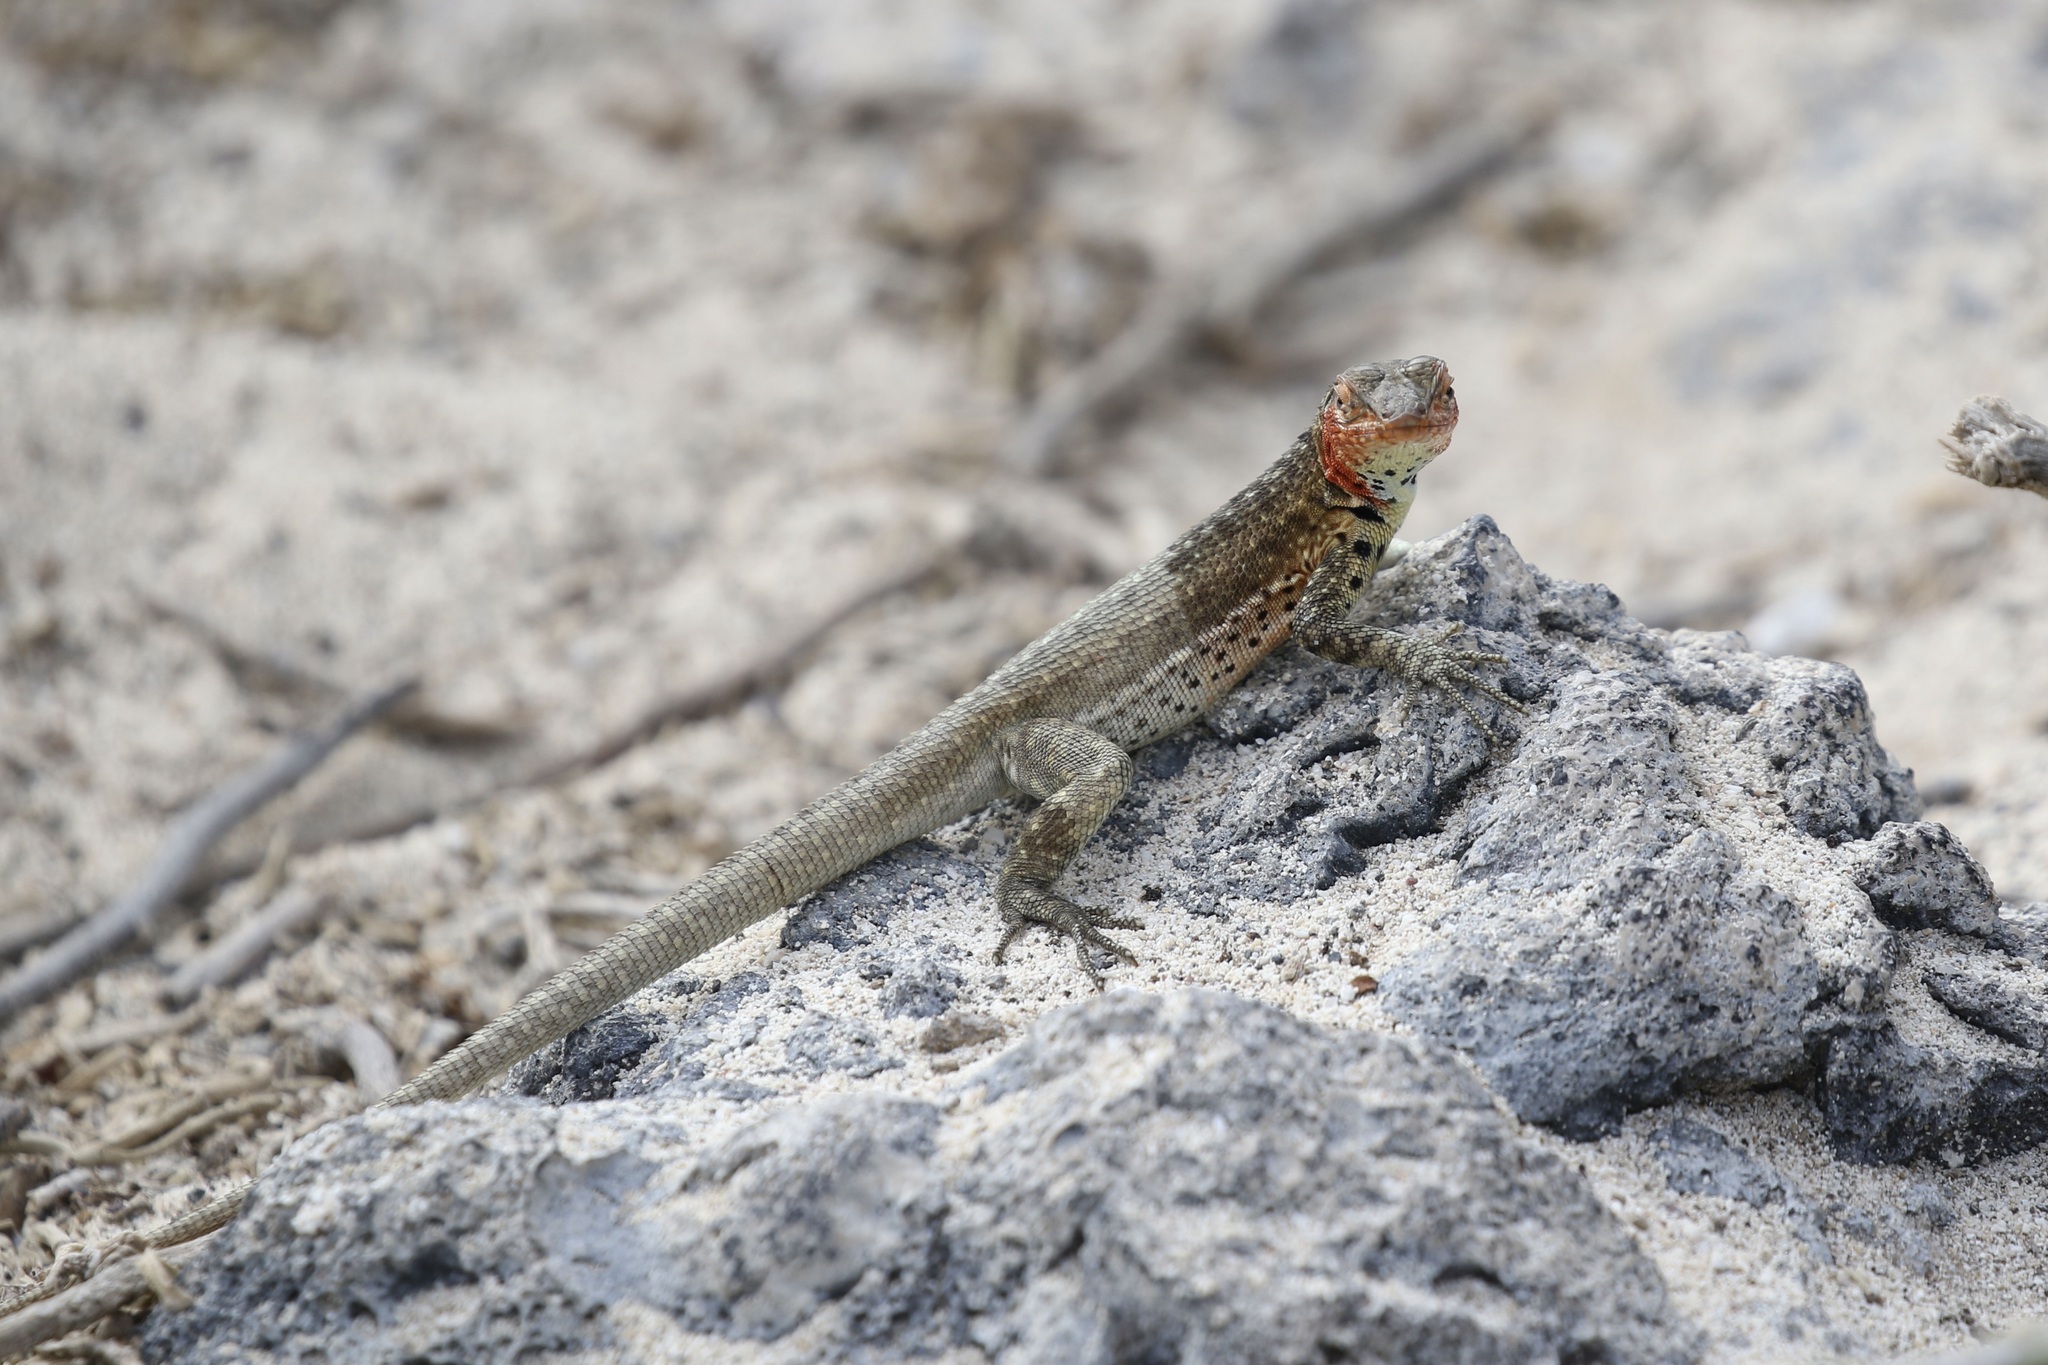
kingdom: Animalia
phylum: Chordata
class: Squamata
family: Tropiduridae
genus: Microlophus
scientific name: Microlophus jacobii
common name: Santiago lava lizard
